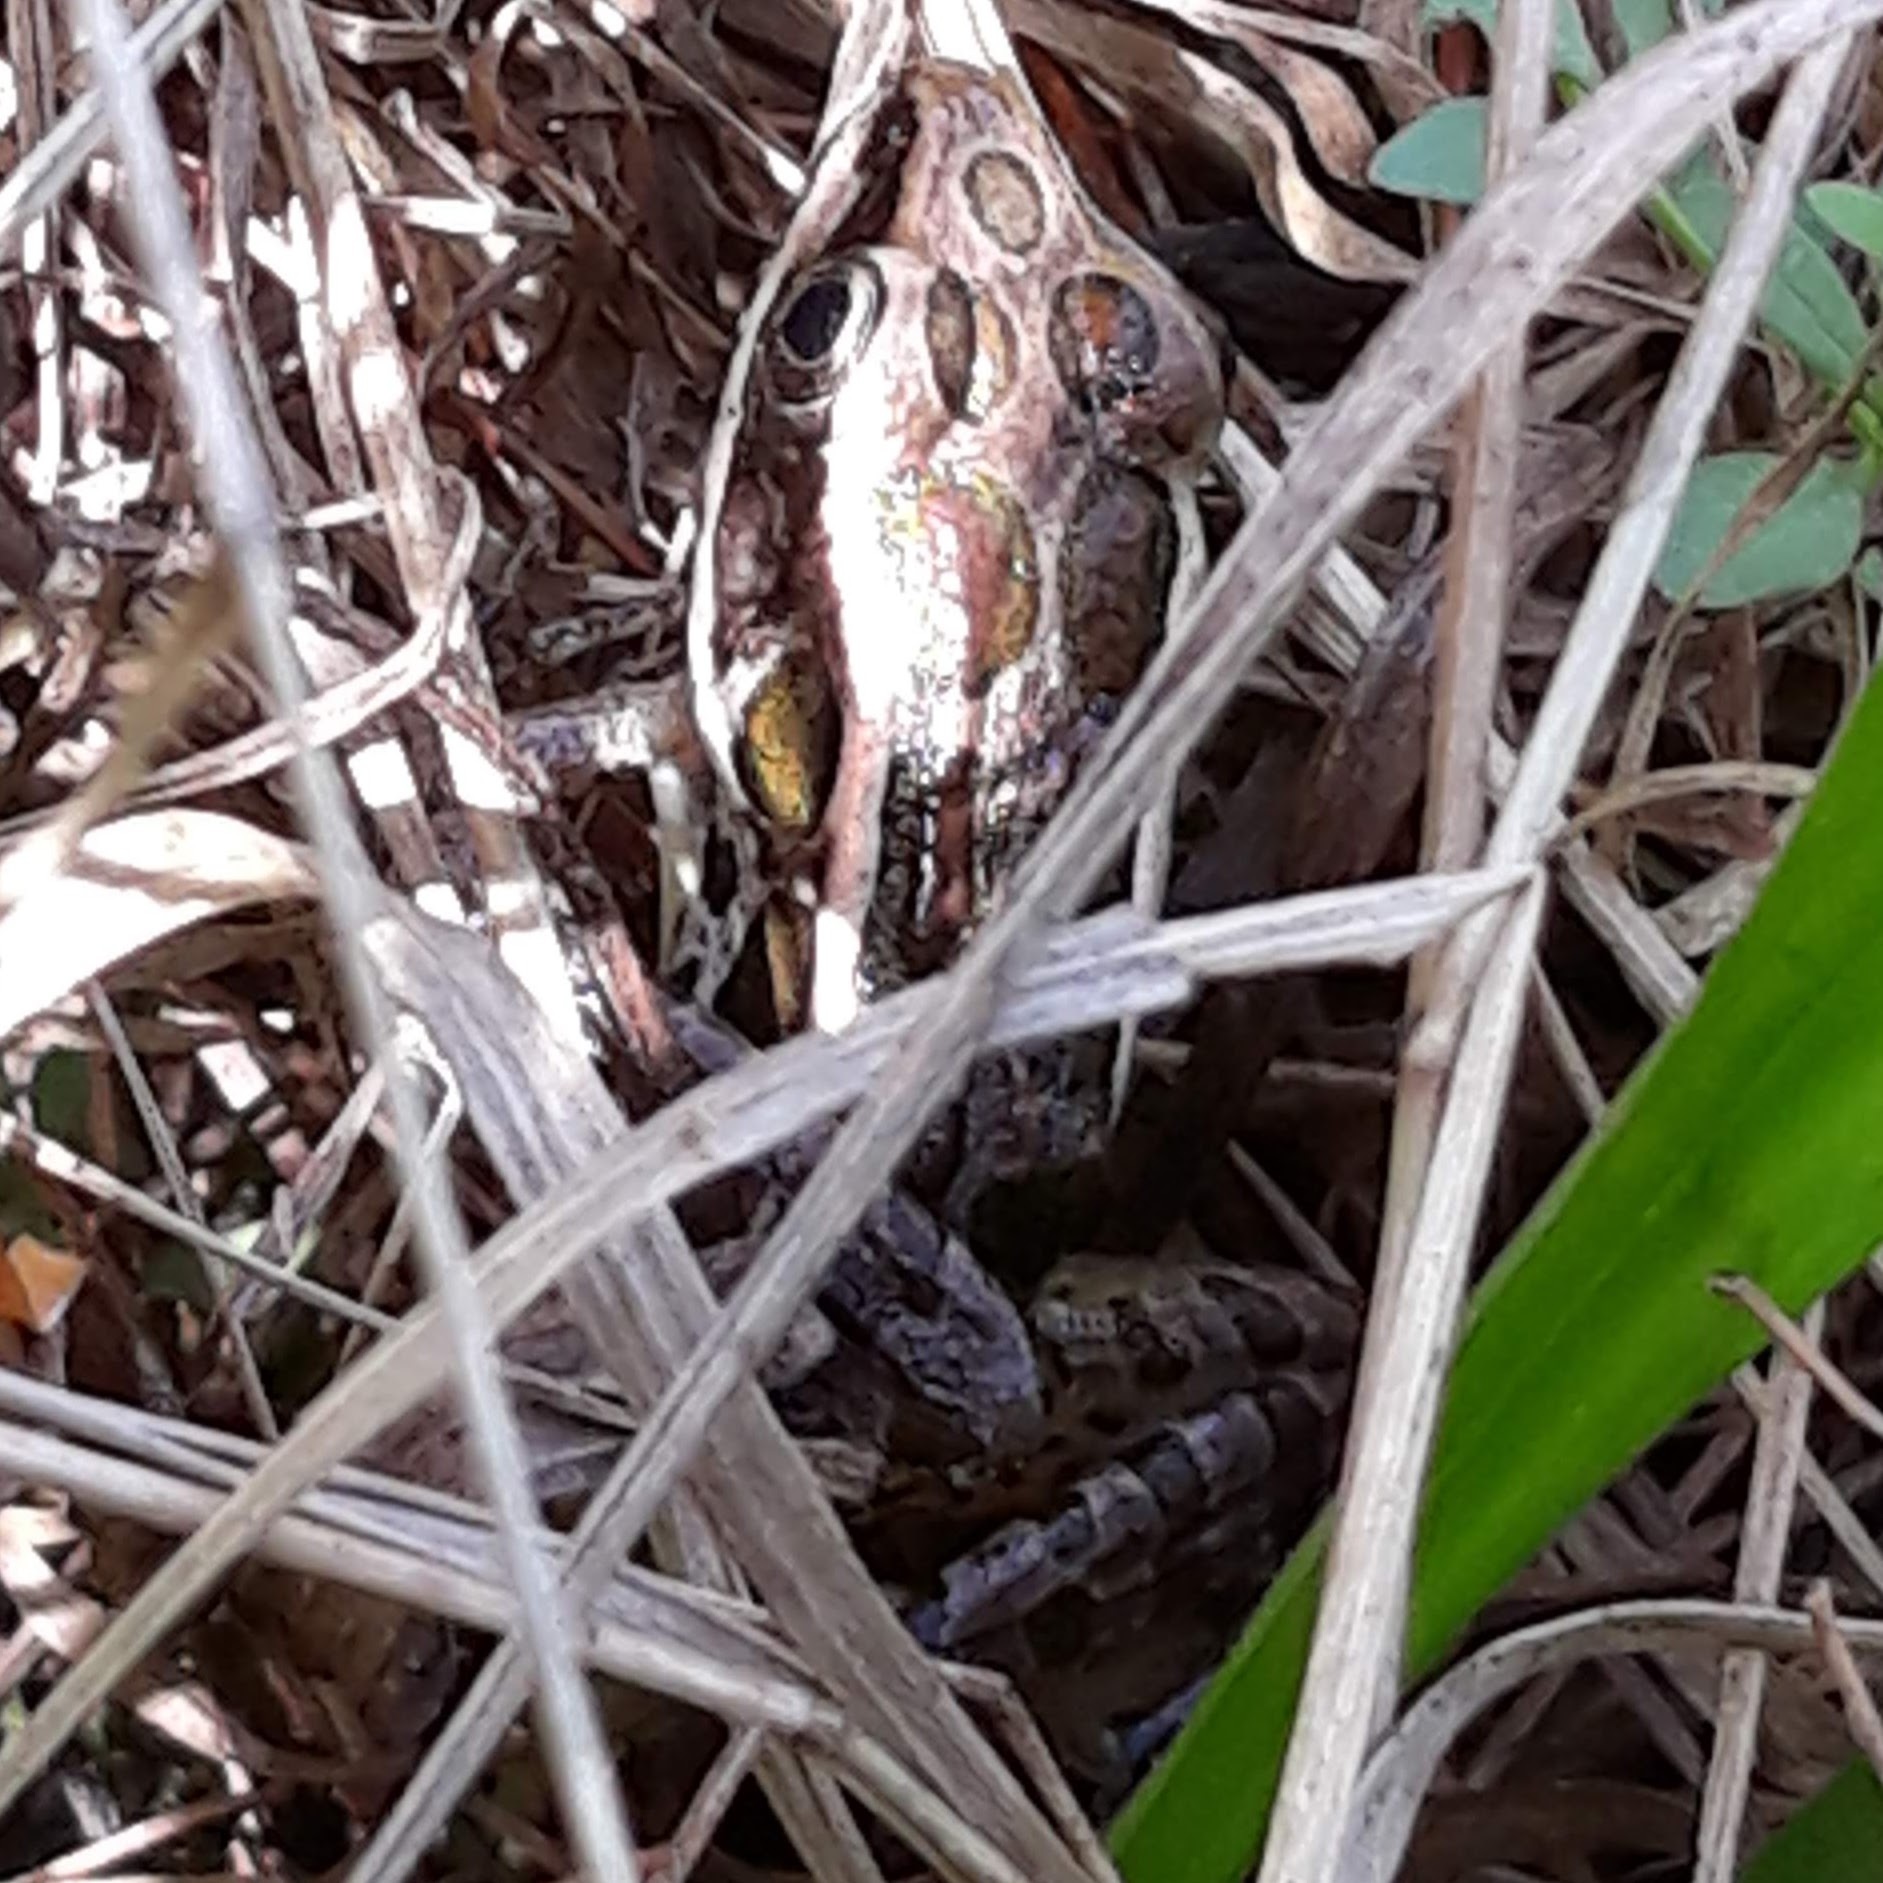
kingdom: Animalia
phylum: Chordata
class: Amphibia
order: Anura
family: Ranidae
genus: Lithobates
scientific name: Lithobates palustris
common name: Pickerel frog
